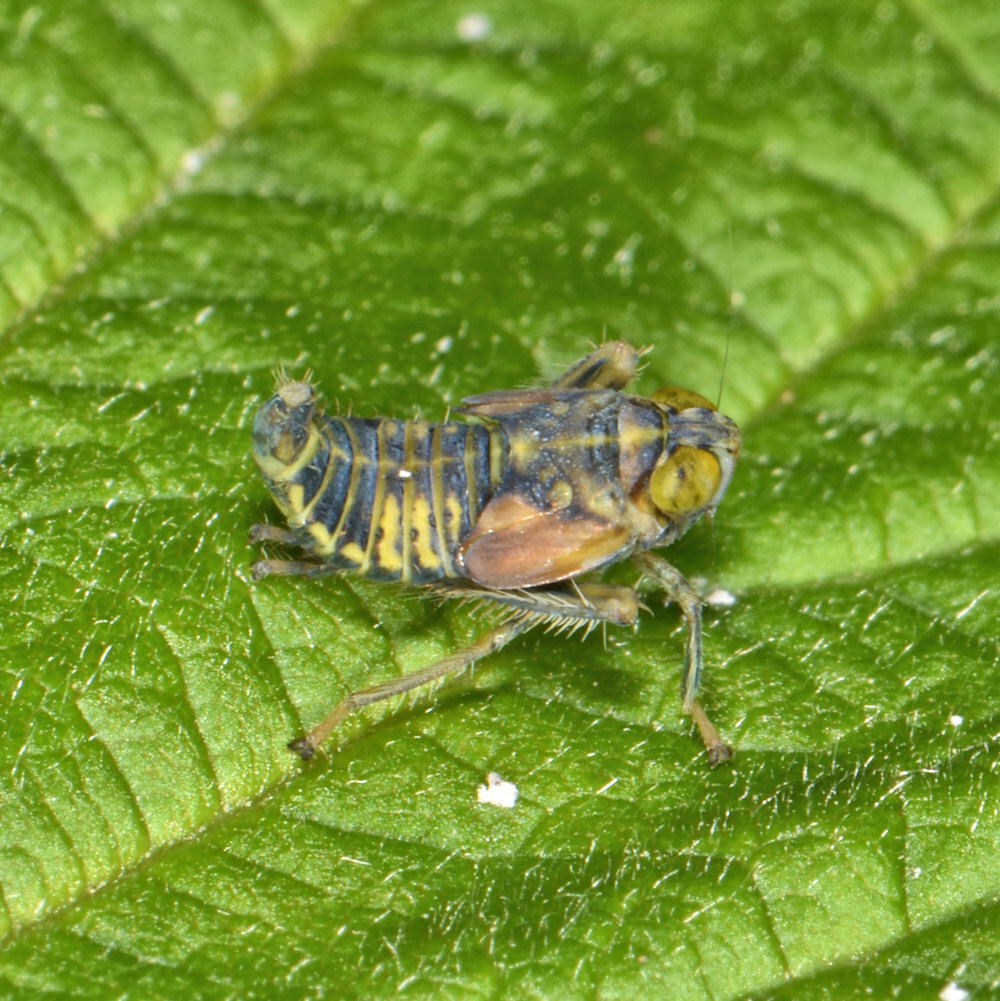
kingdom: Animalia
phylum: Arthropoda
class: Insecta
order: Hemiptera
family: Cicadellidae
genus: Jikradia
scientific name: Jikradia olitoria
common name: Coppery leafhopper
